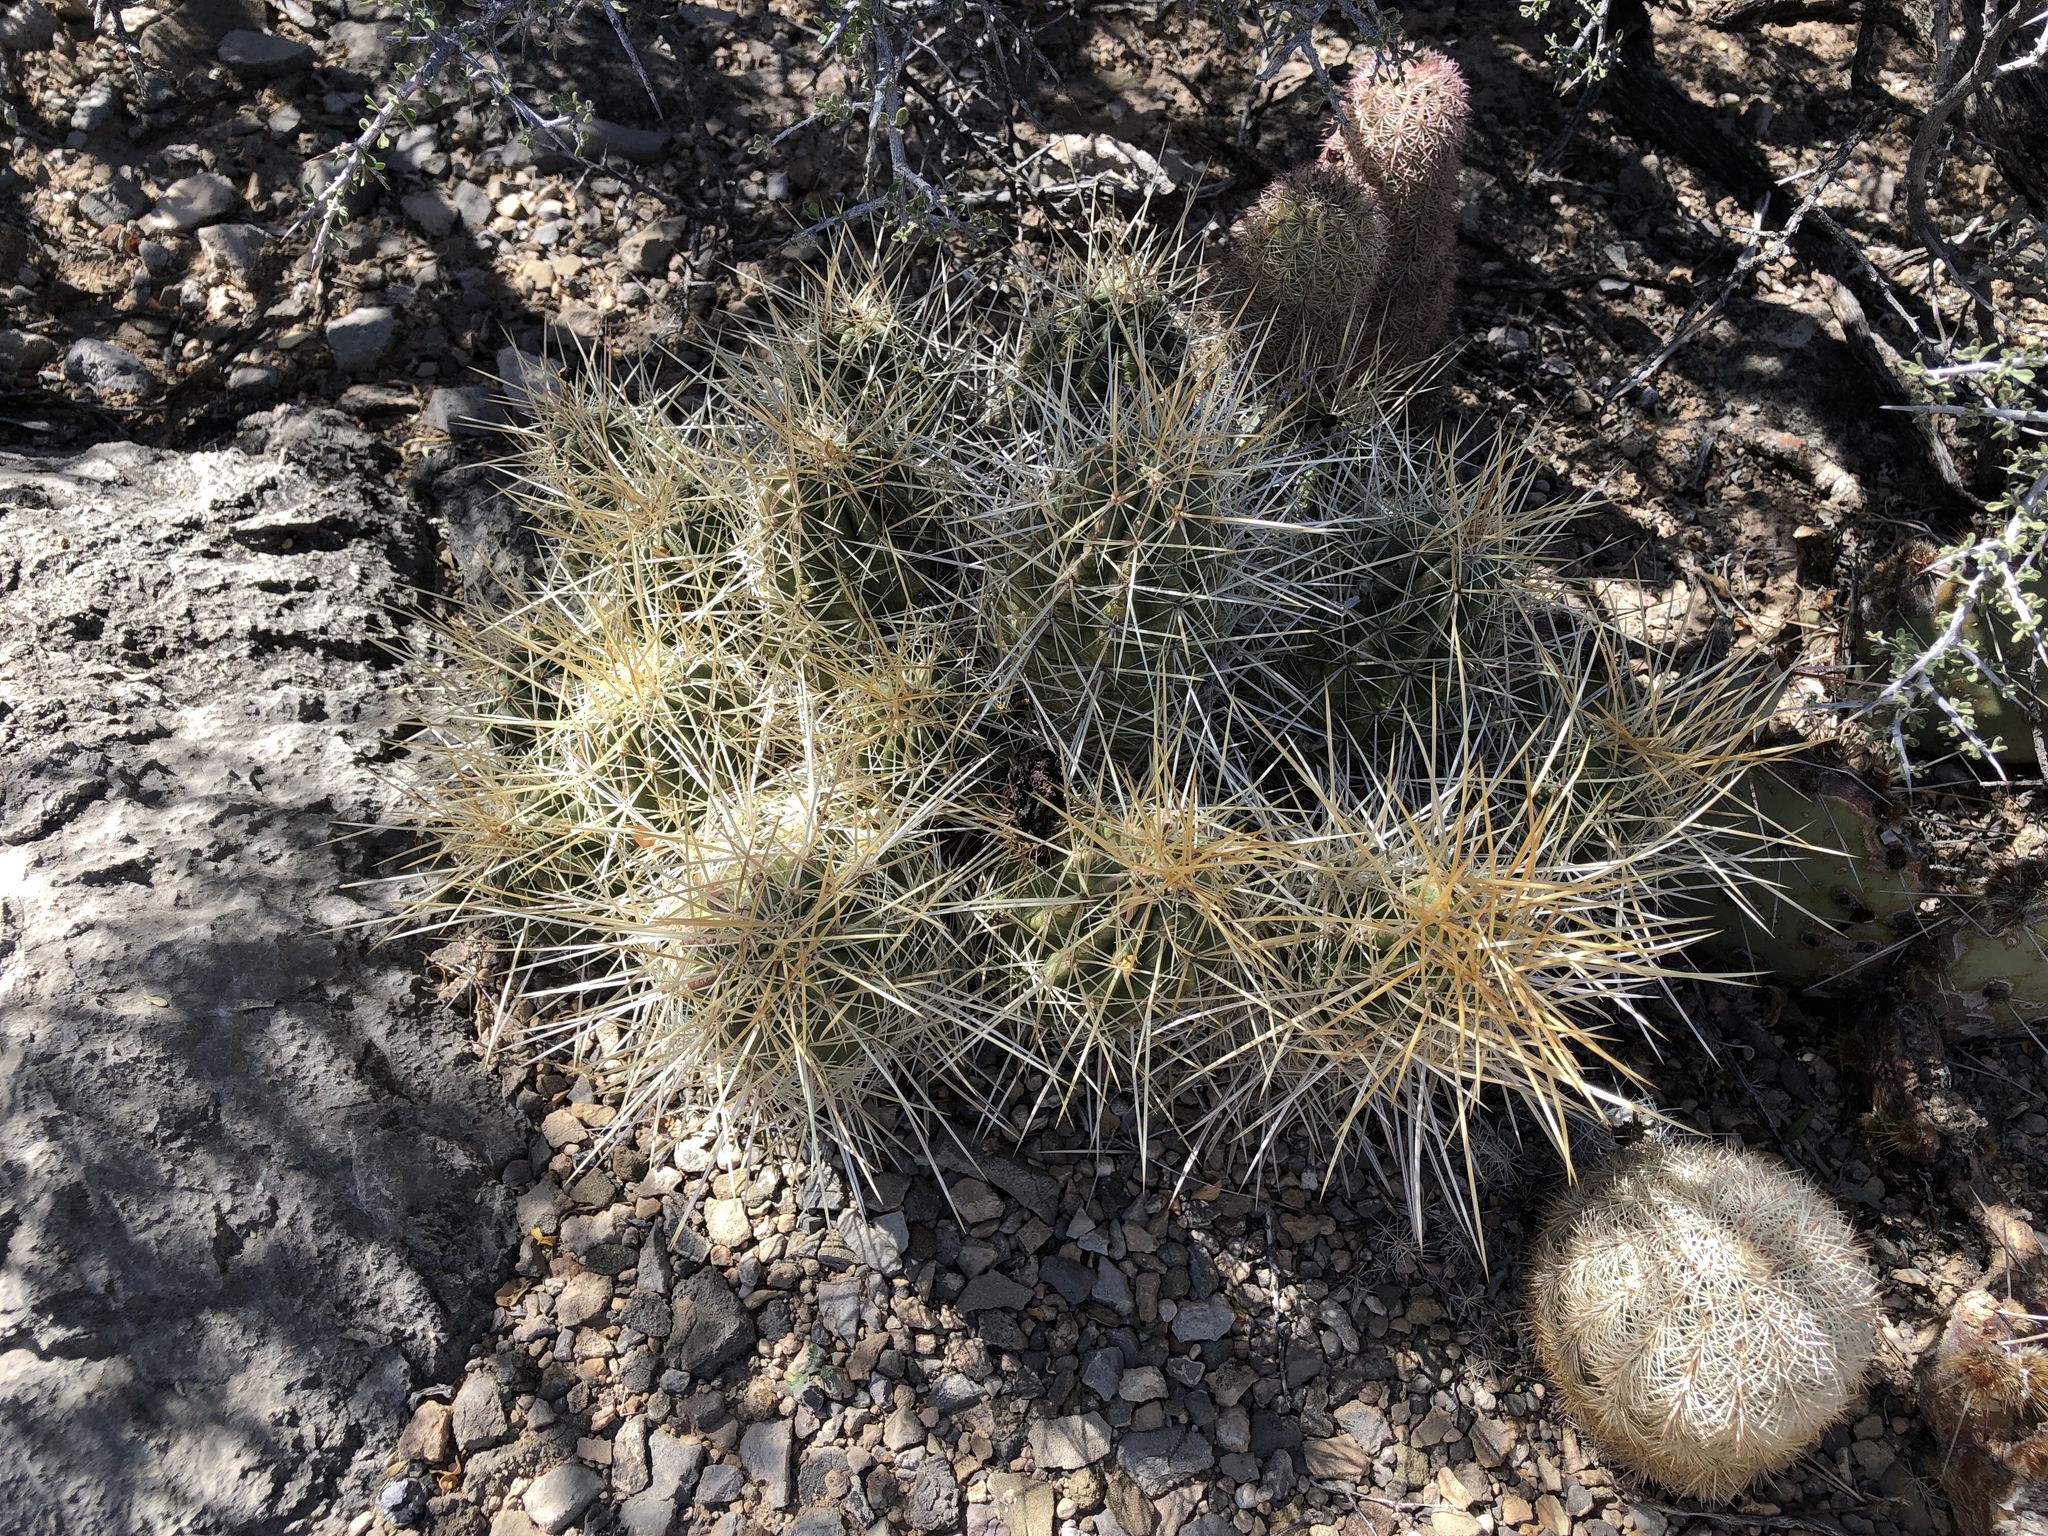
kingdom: Plantae
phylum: Tracheophyta
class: Magnoliopsida
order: Caryophyllales
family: Cactaceae
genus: Echinocereus
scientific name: Echinocereus stramineus
